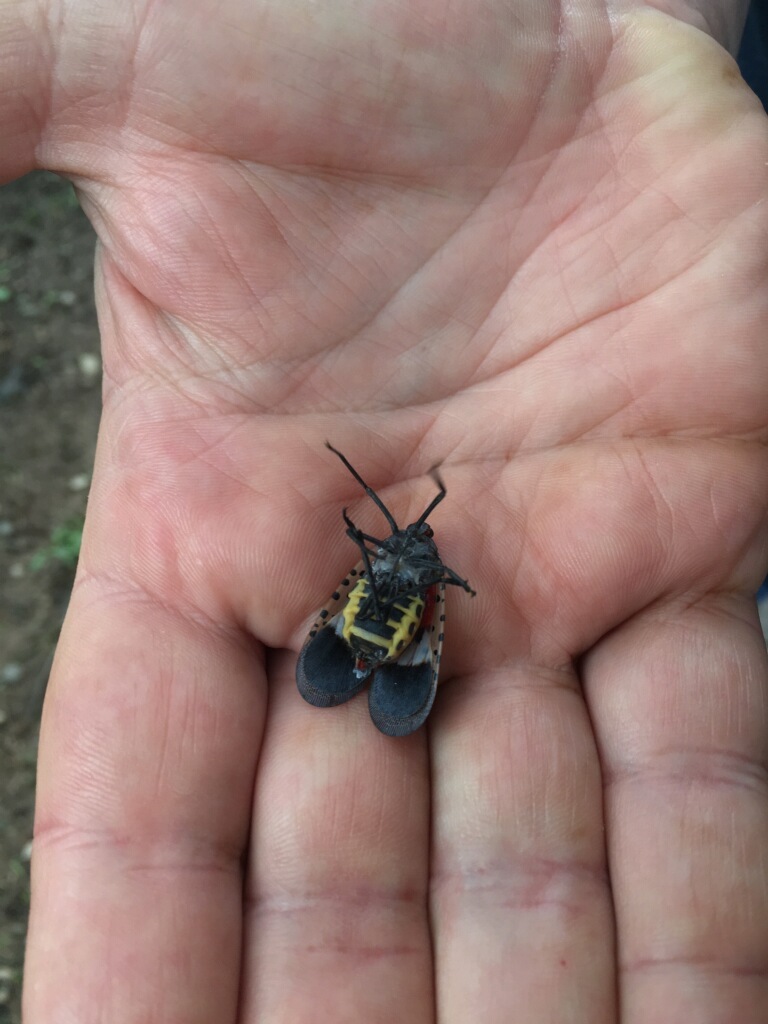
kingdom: Animalia
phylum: Arthropoda
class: Insecta
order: Hemiptera
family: Fulgoridae
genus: Lycorma
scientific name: Lycorma delicatula
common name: Spotted lanternfly
